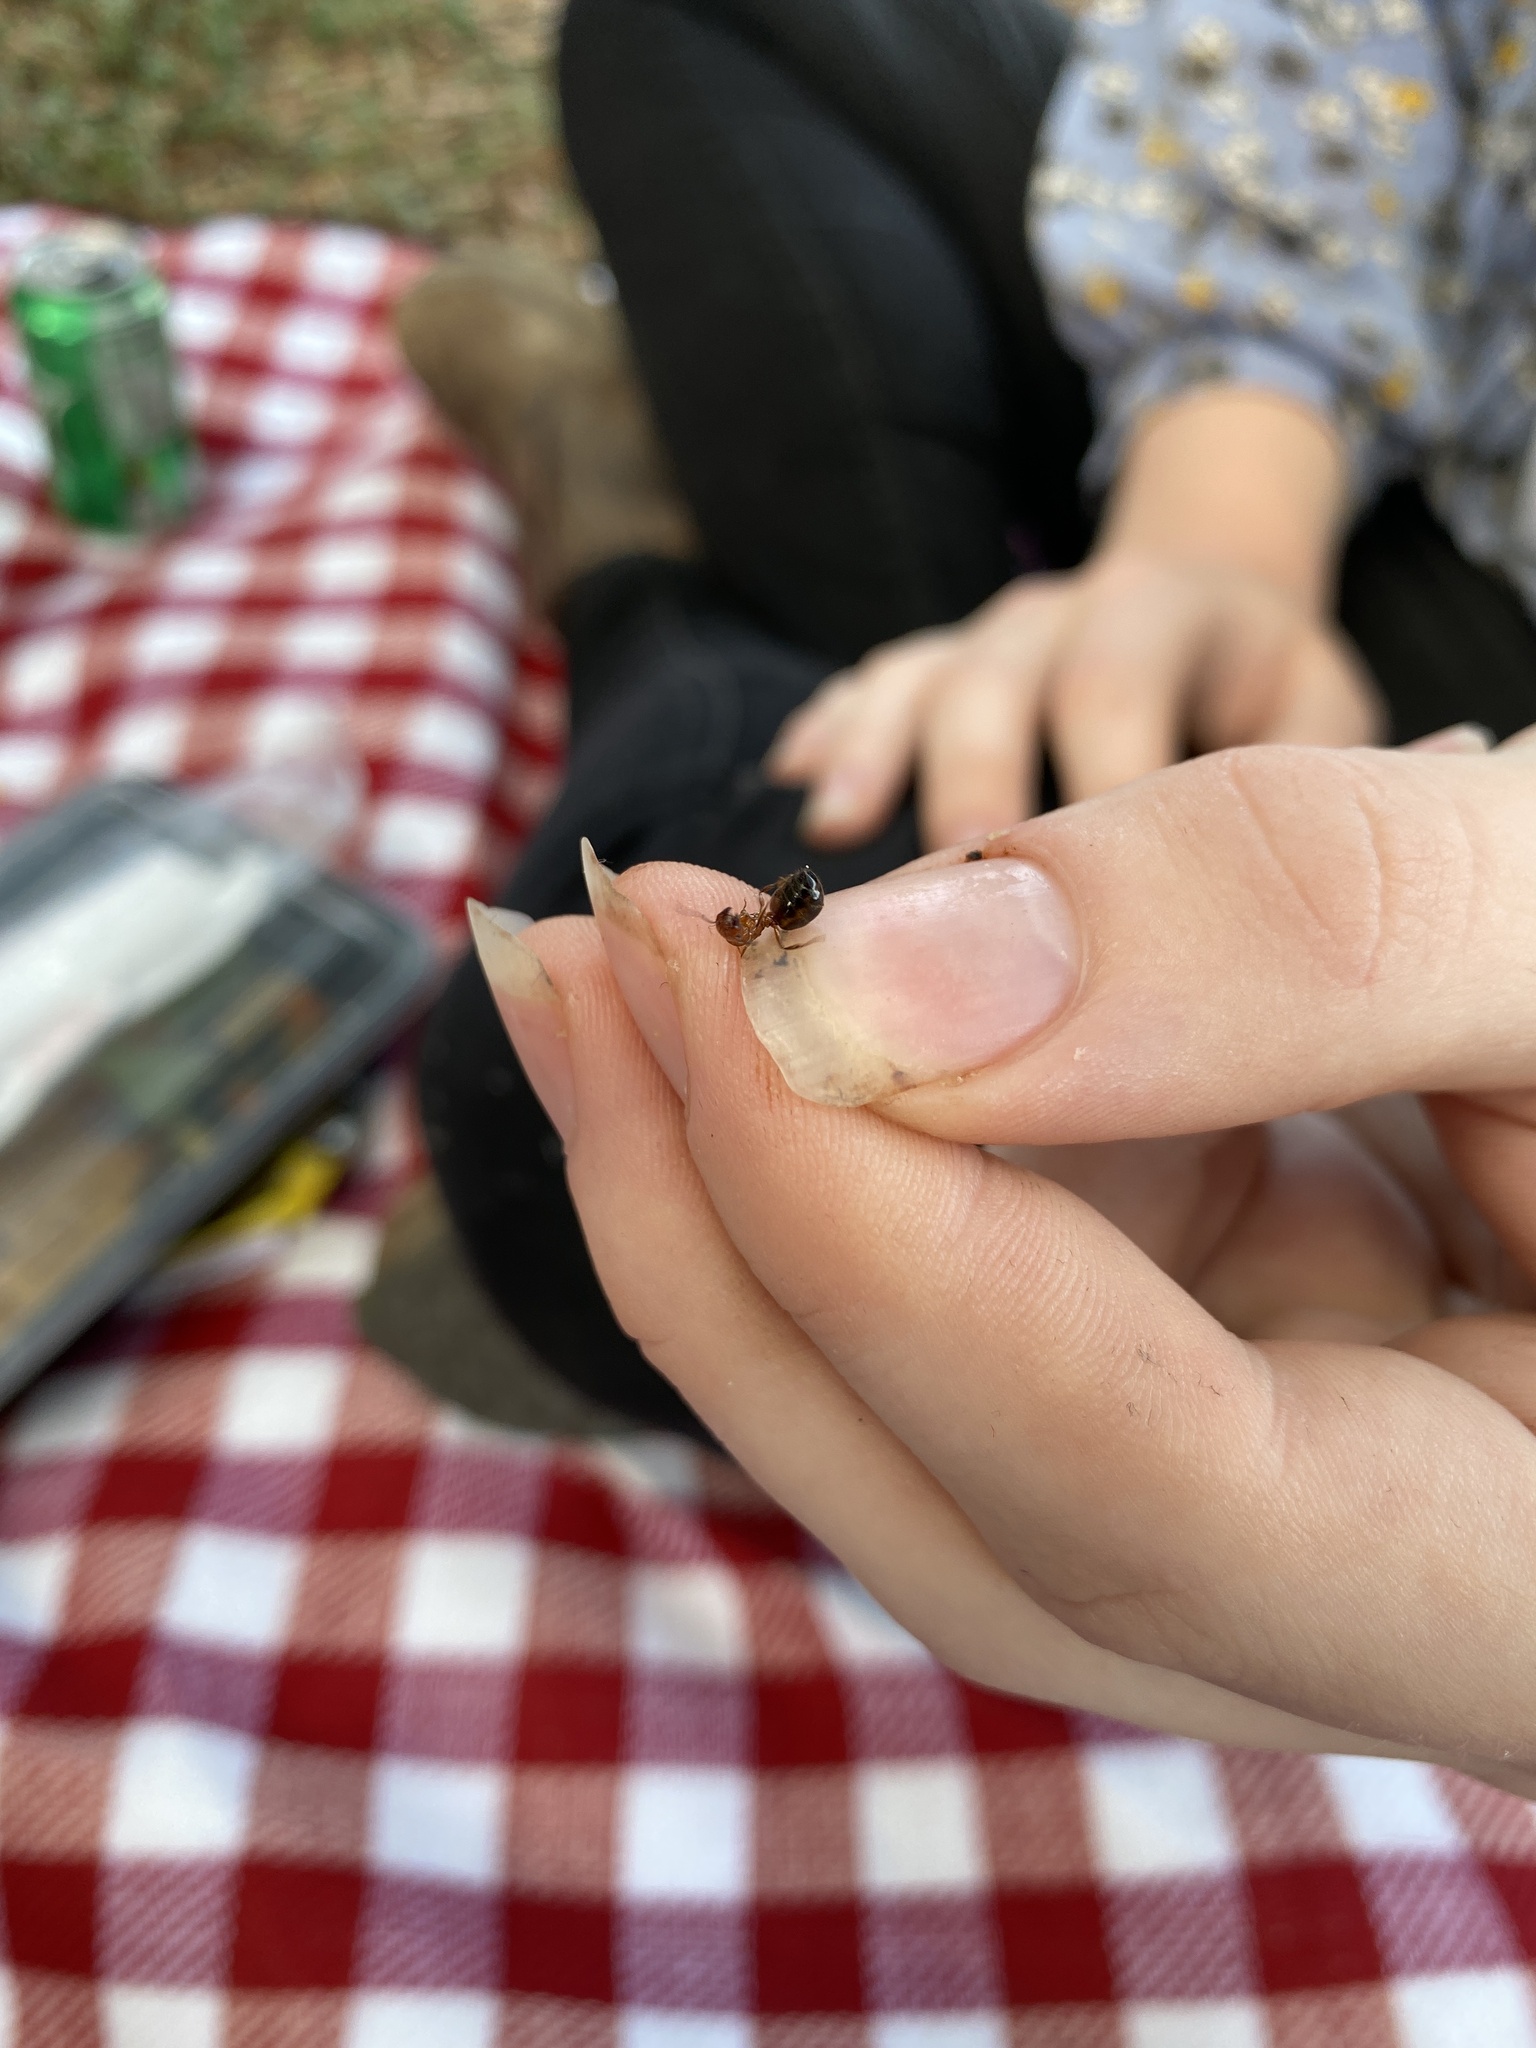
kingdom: Animalia
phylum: Arthropoda
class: Insecta
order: Hymenoptera
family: Formicidae
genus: Solenopsis
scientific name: Solenopsis invicta
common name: Red imported fire ant
